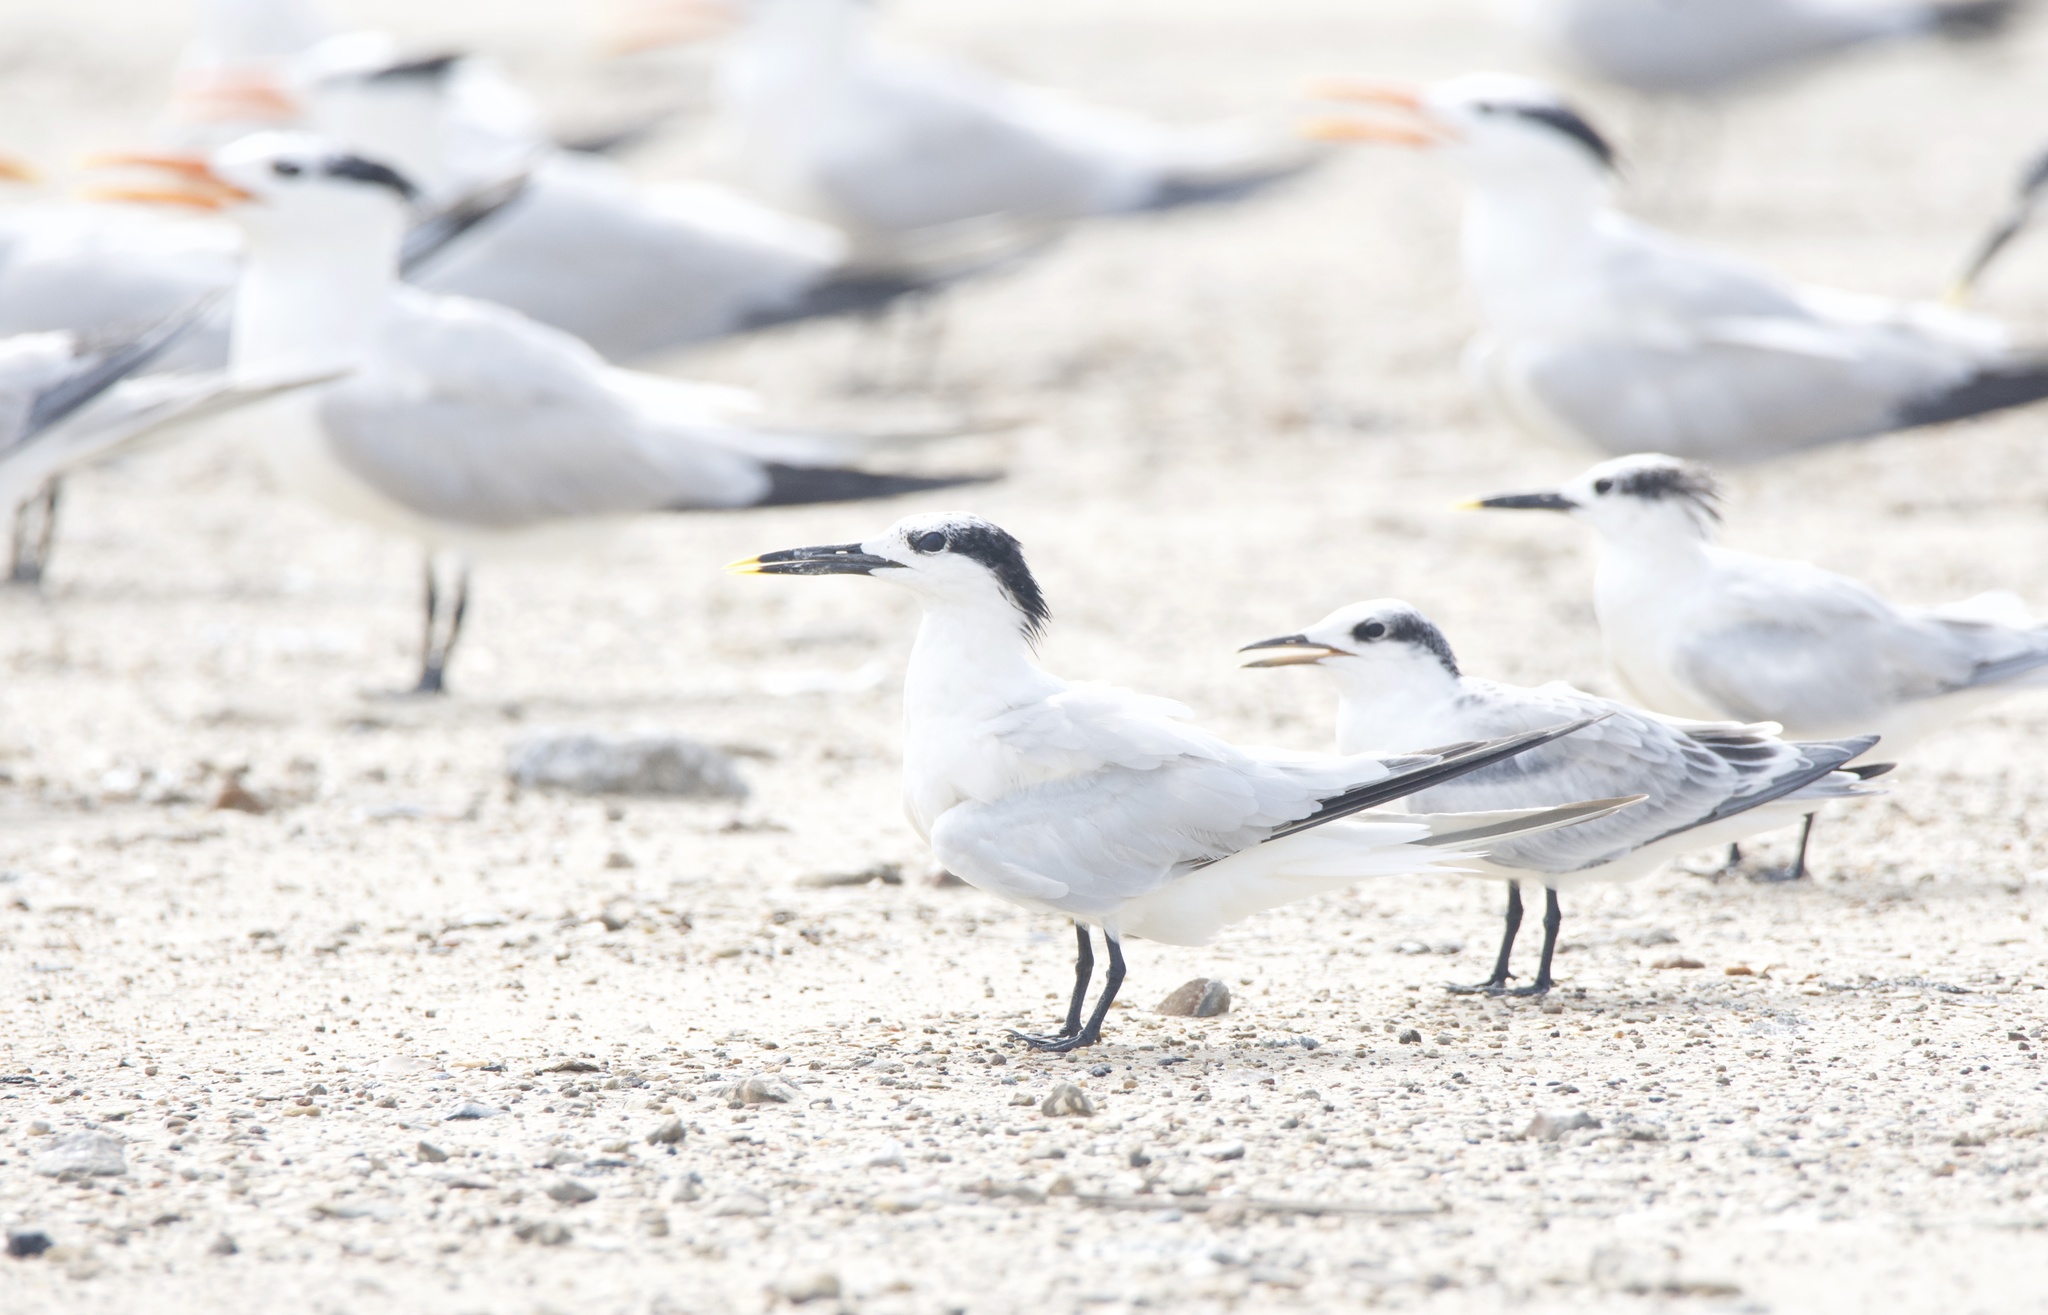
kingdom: Animalia
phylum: Chordata
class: Aves
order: Charadriiformes
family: Laridae
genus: Thalasseus
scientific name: Thalasseus sandvicensis
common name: Sandwich tern
